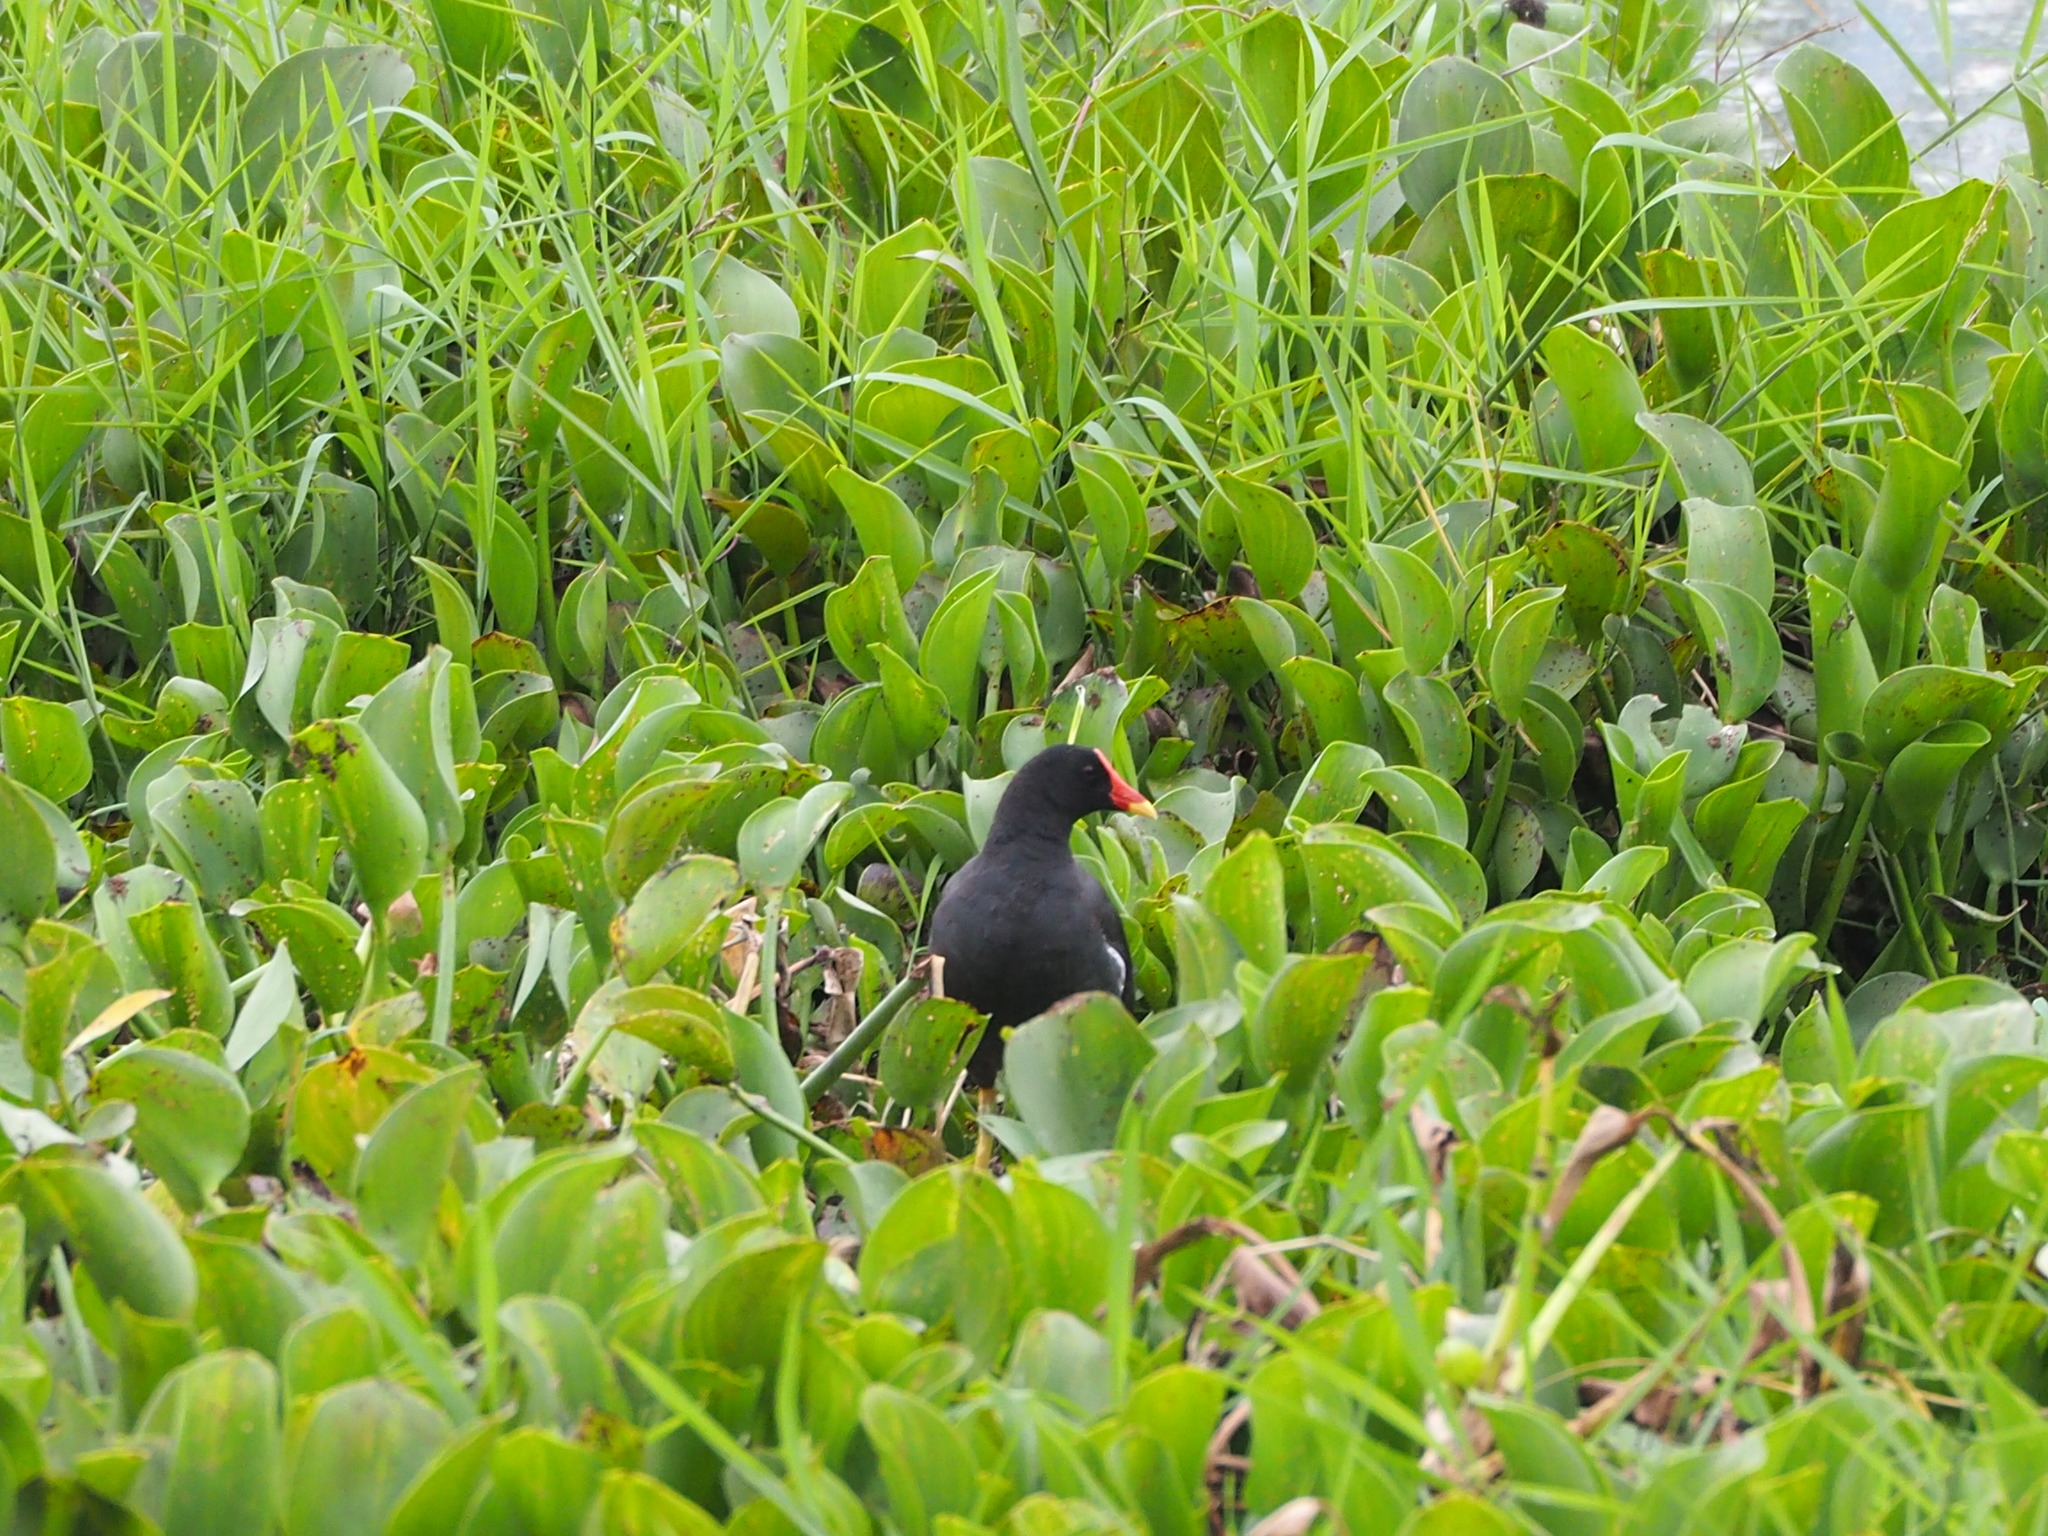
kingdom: Animalia
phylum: Chordata
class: Aves
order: Gruiformes
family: Rallidae
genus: Gallinula
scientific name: Gallinula chloropus
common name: Common moorhen
